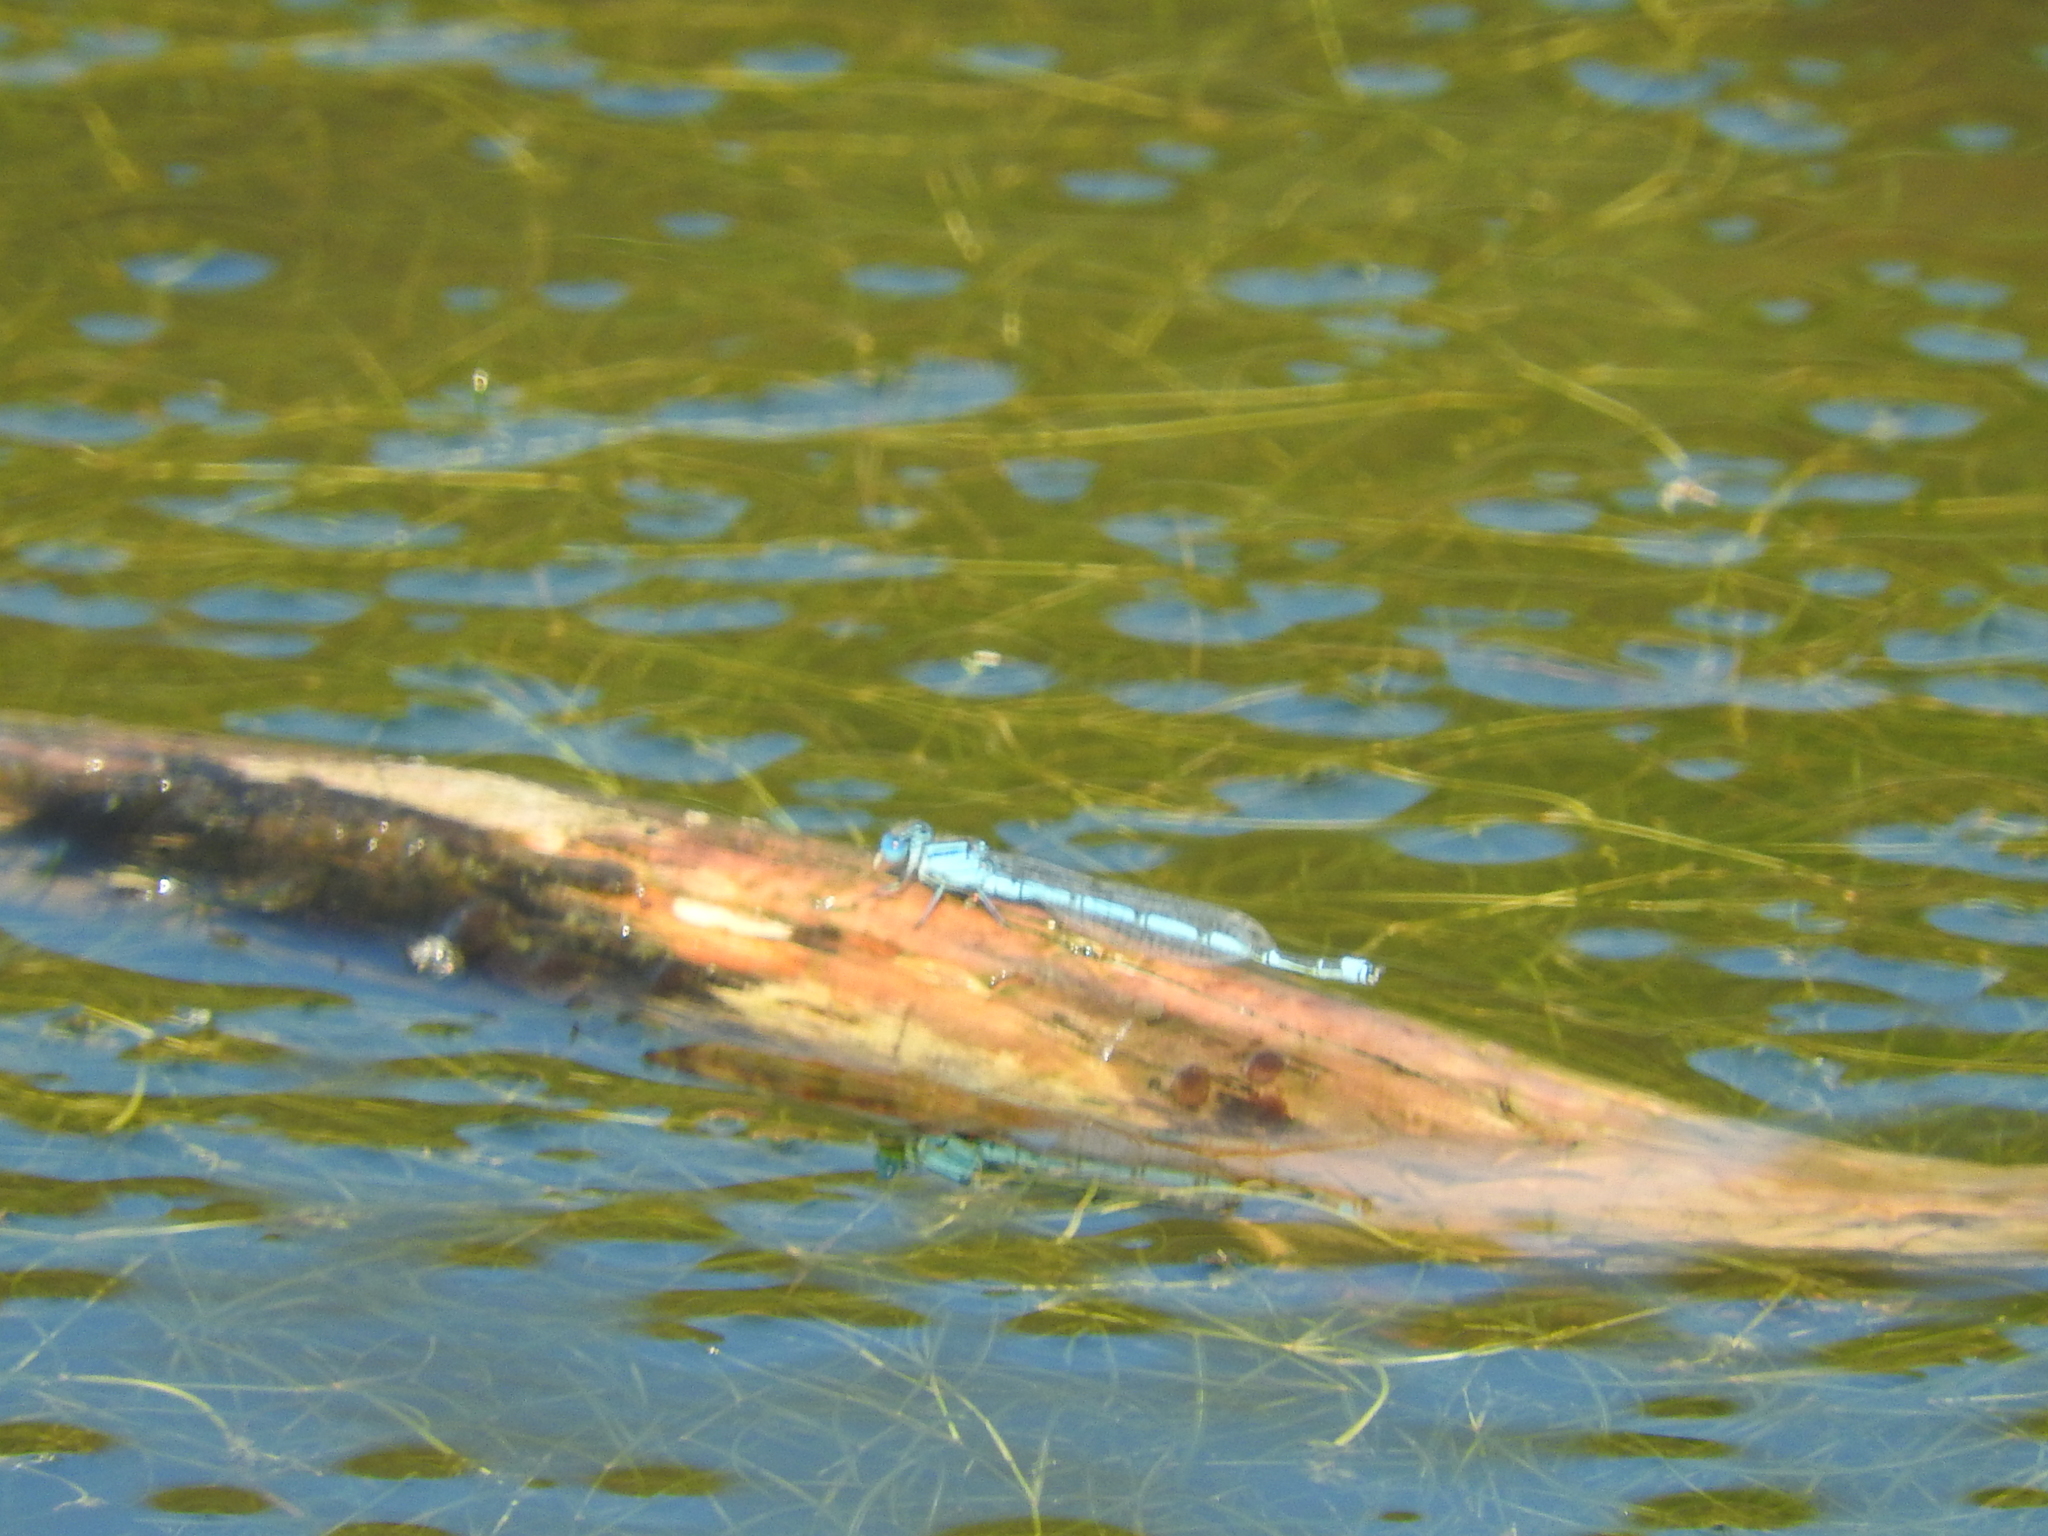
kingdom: Animalia
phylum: Arthropoda
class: Insecta
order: Odonata
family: Coenagrionidae
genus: Erythromma
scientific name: Erythromma lindenii
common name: Blue-eye
